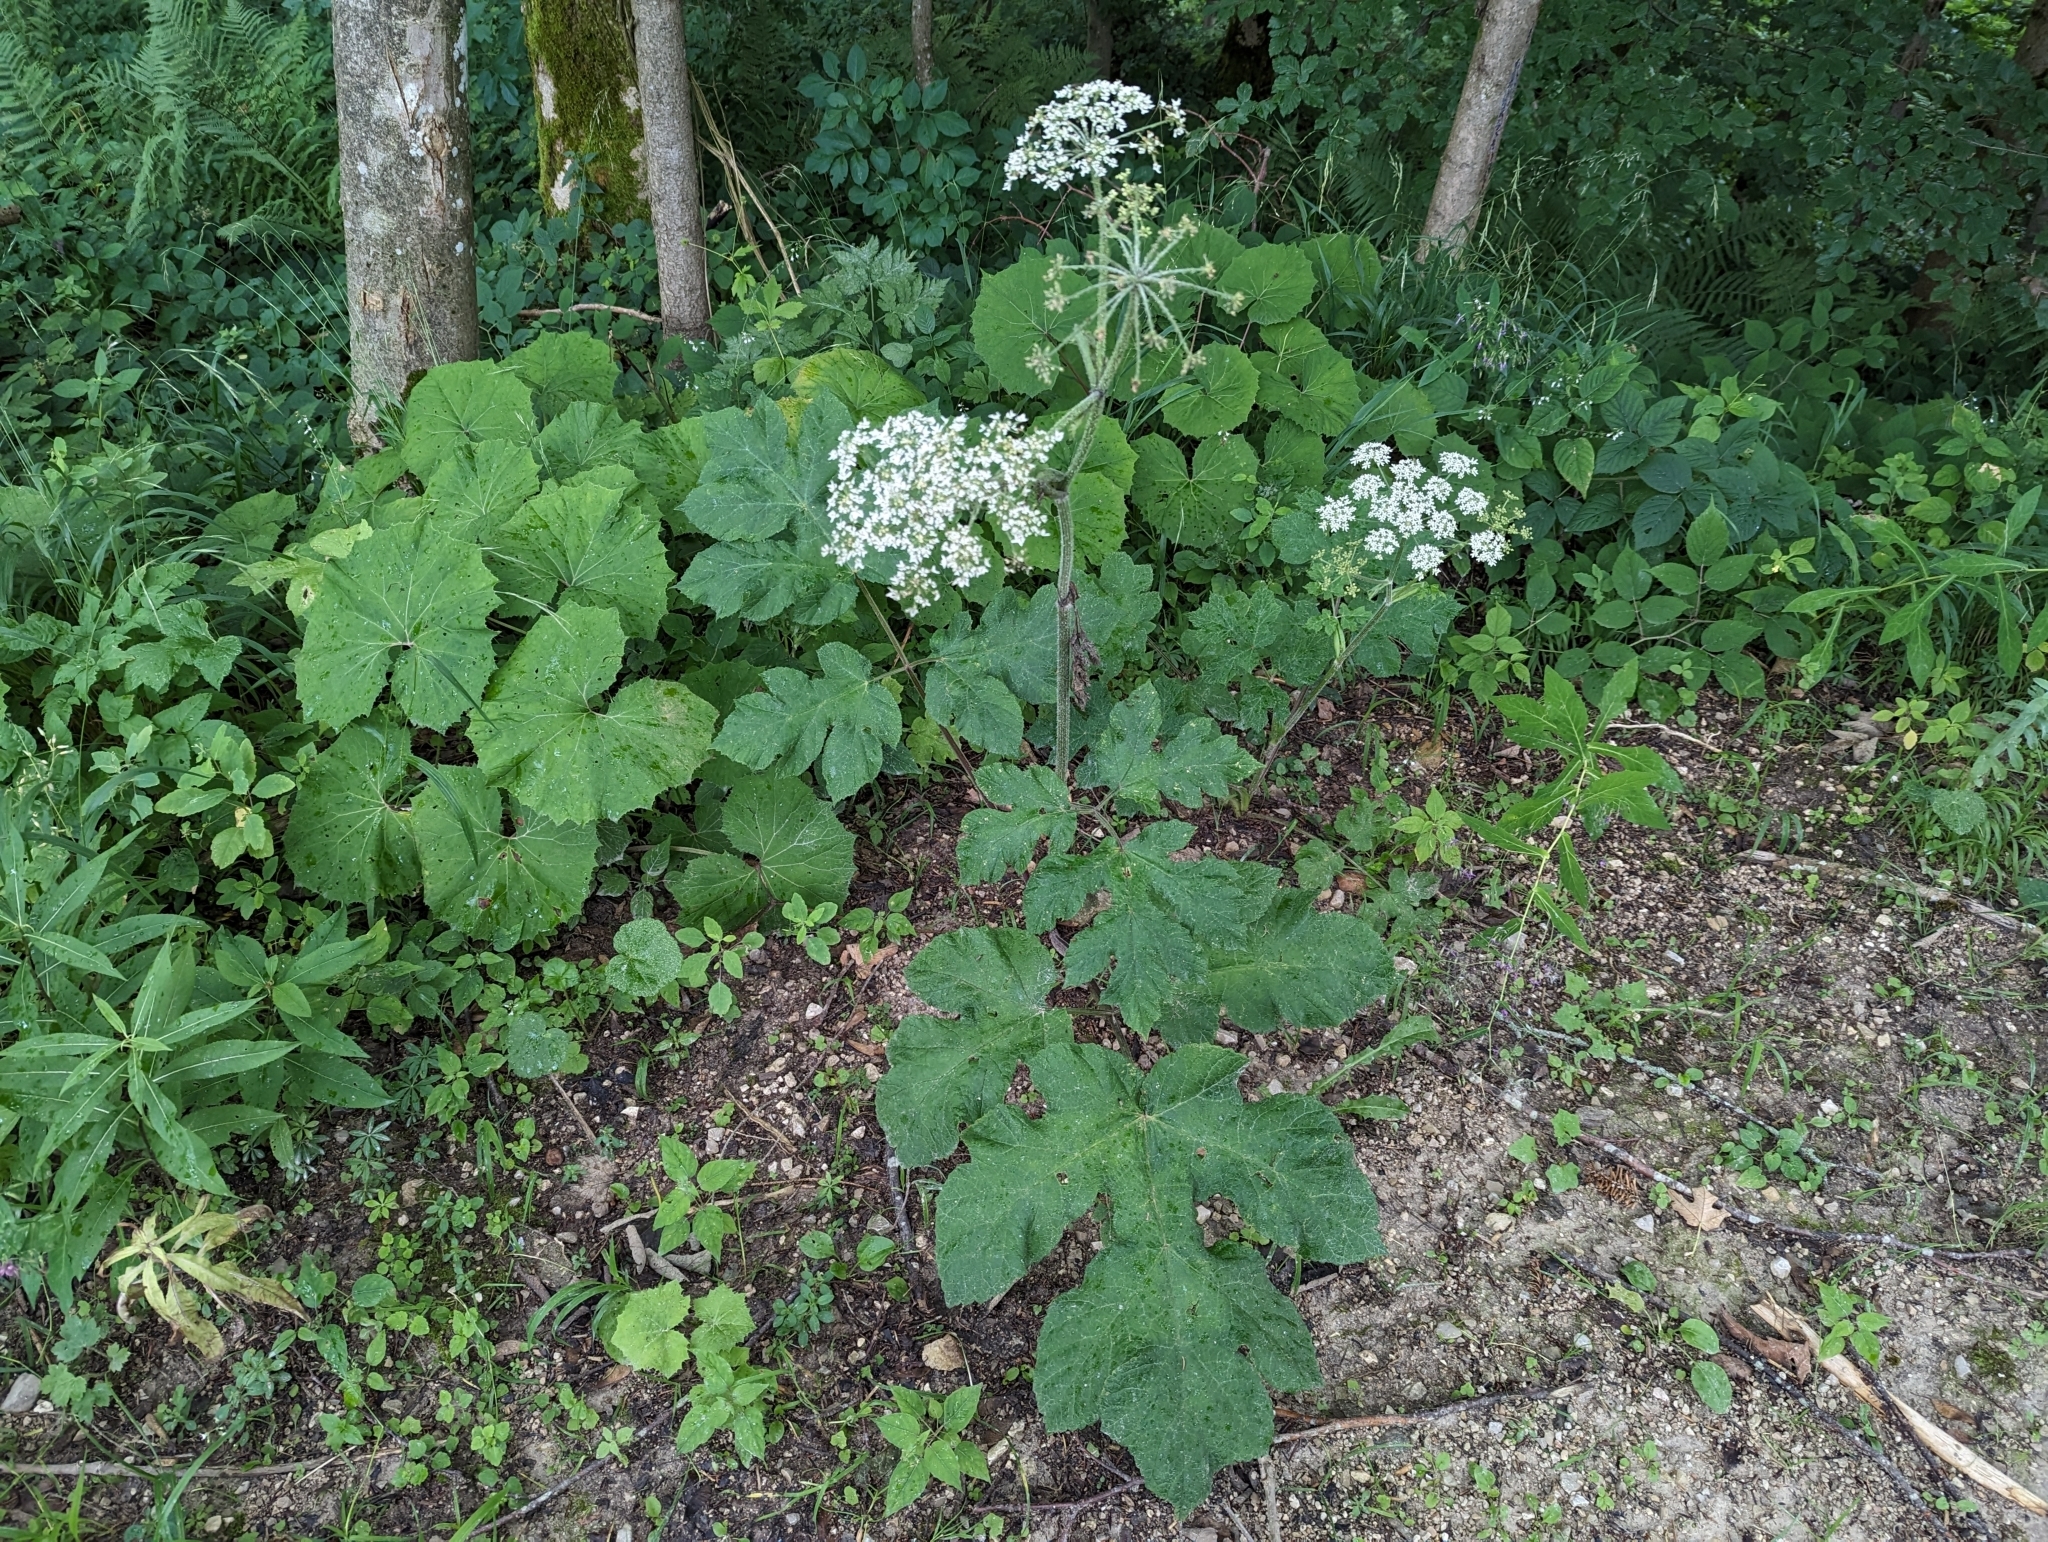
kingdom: Plantae
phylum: Tracheophyta
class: Magnoliopsida
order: Apiales
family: Apiaceae
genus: Heracleum
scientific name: Heracleum sphondylium
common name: Hogweed
